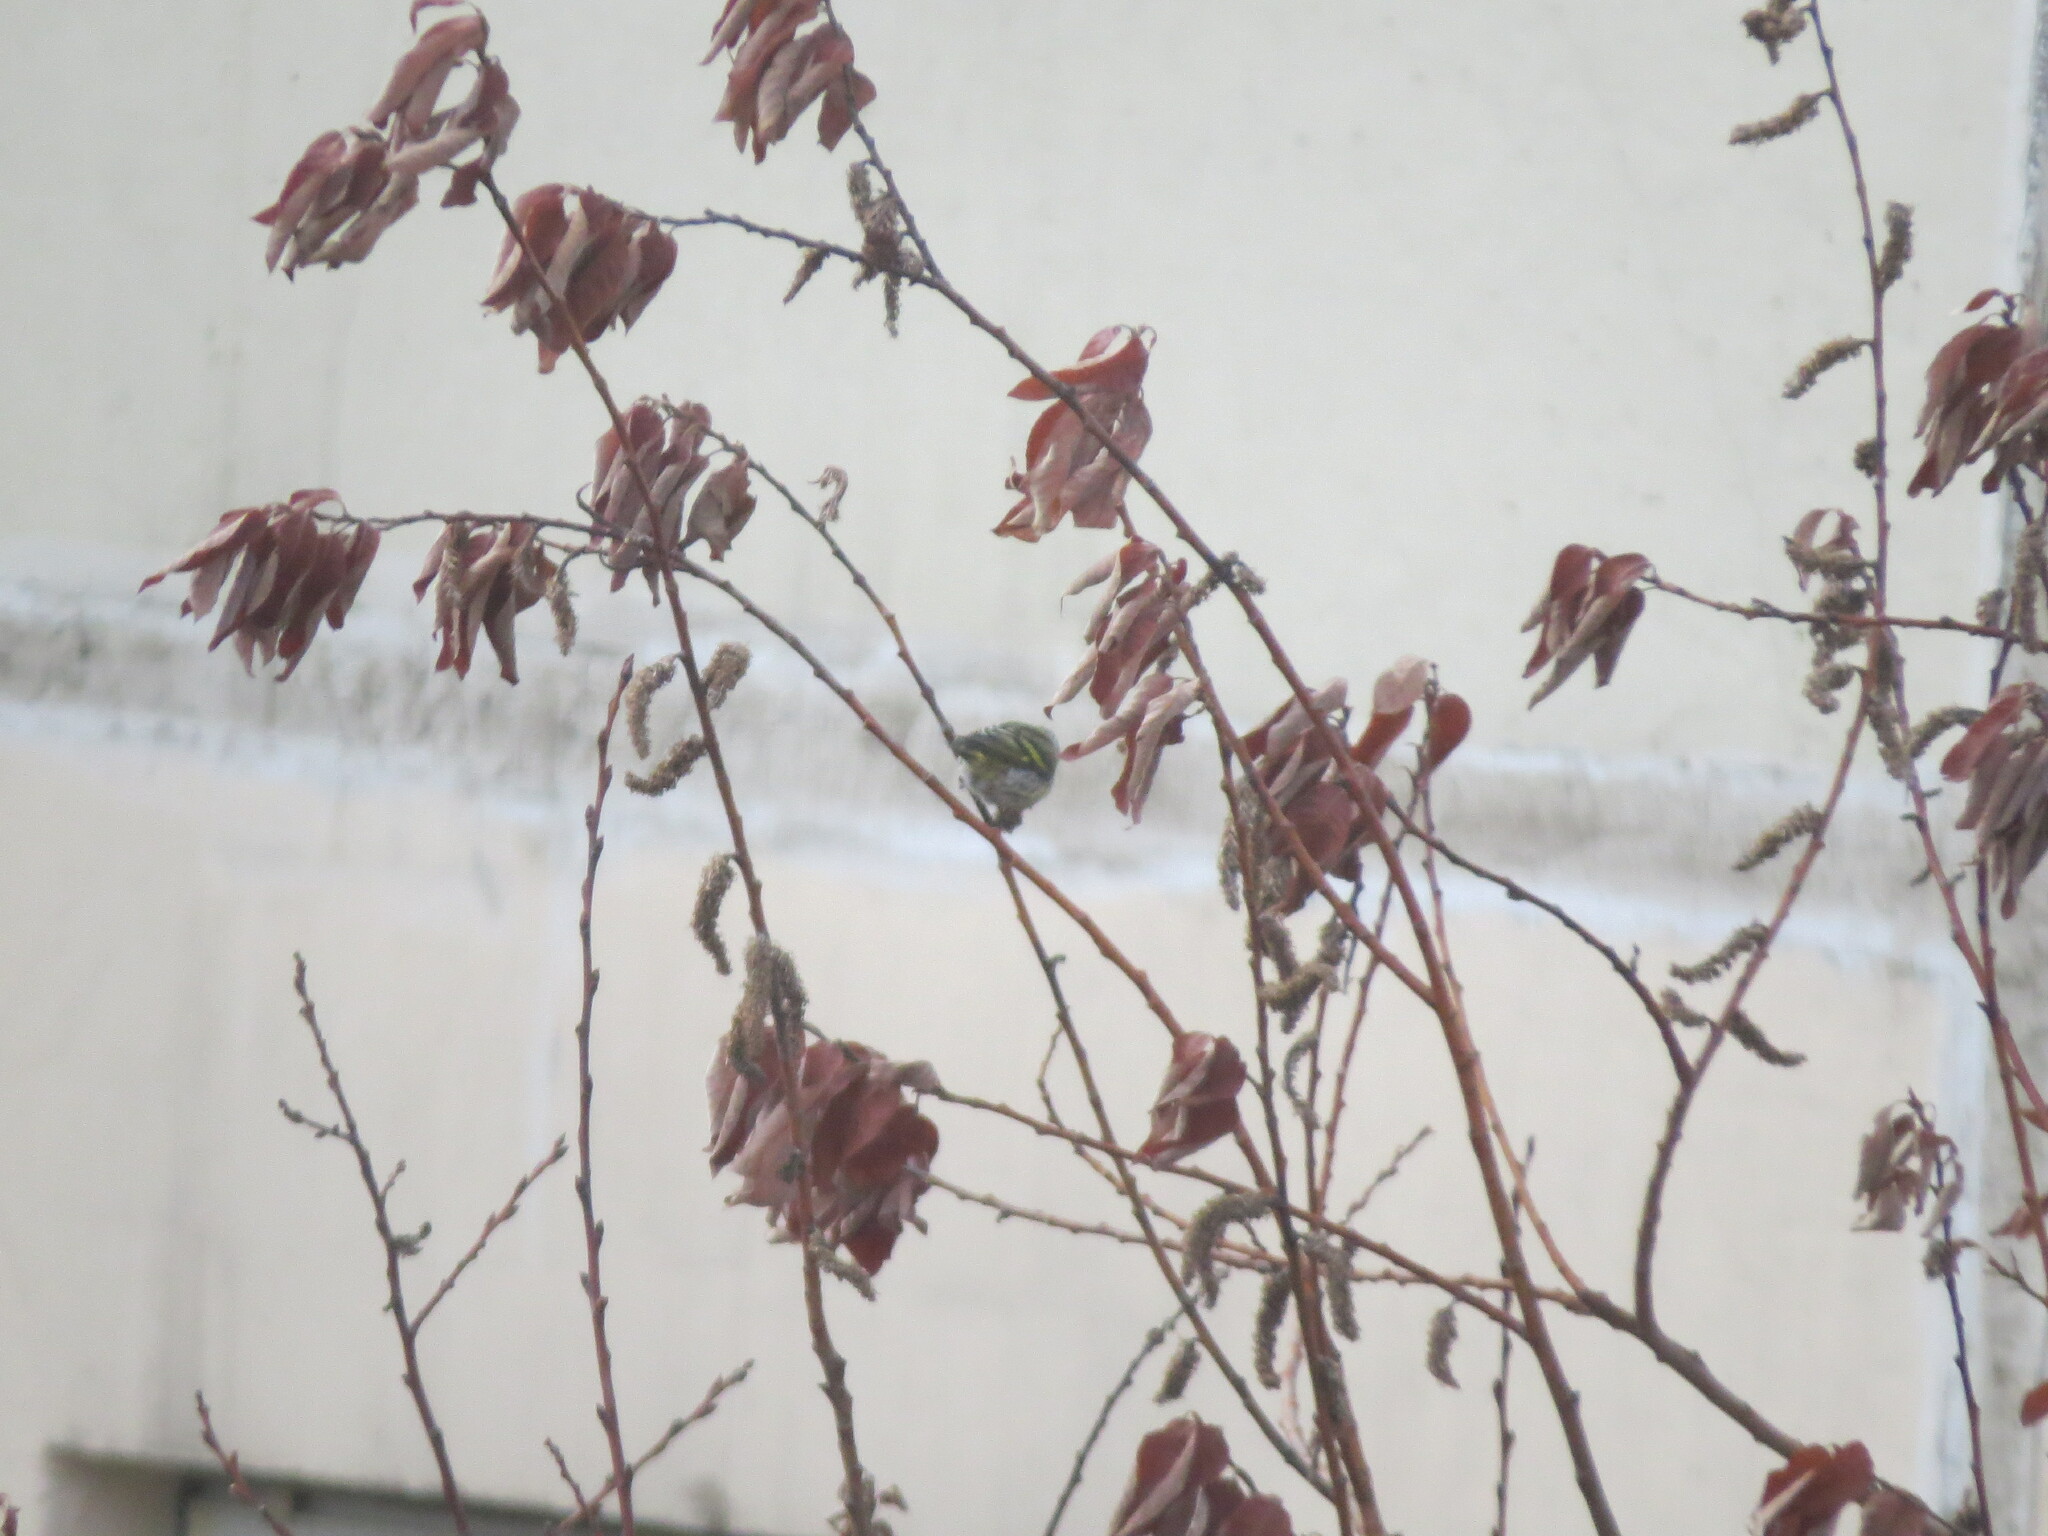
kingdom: Animalia
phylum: Chordata
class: Aves
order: Passeriformes
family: Fringillidae
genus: Spinus
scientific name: Spinus spinus
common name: Eurasian siskin
